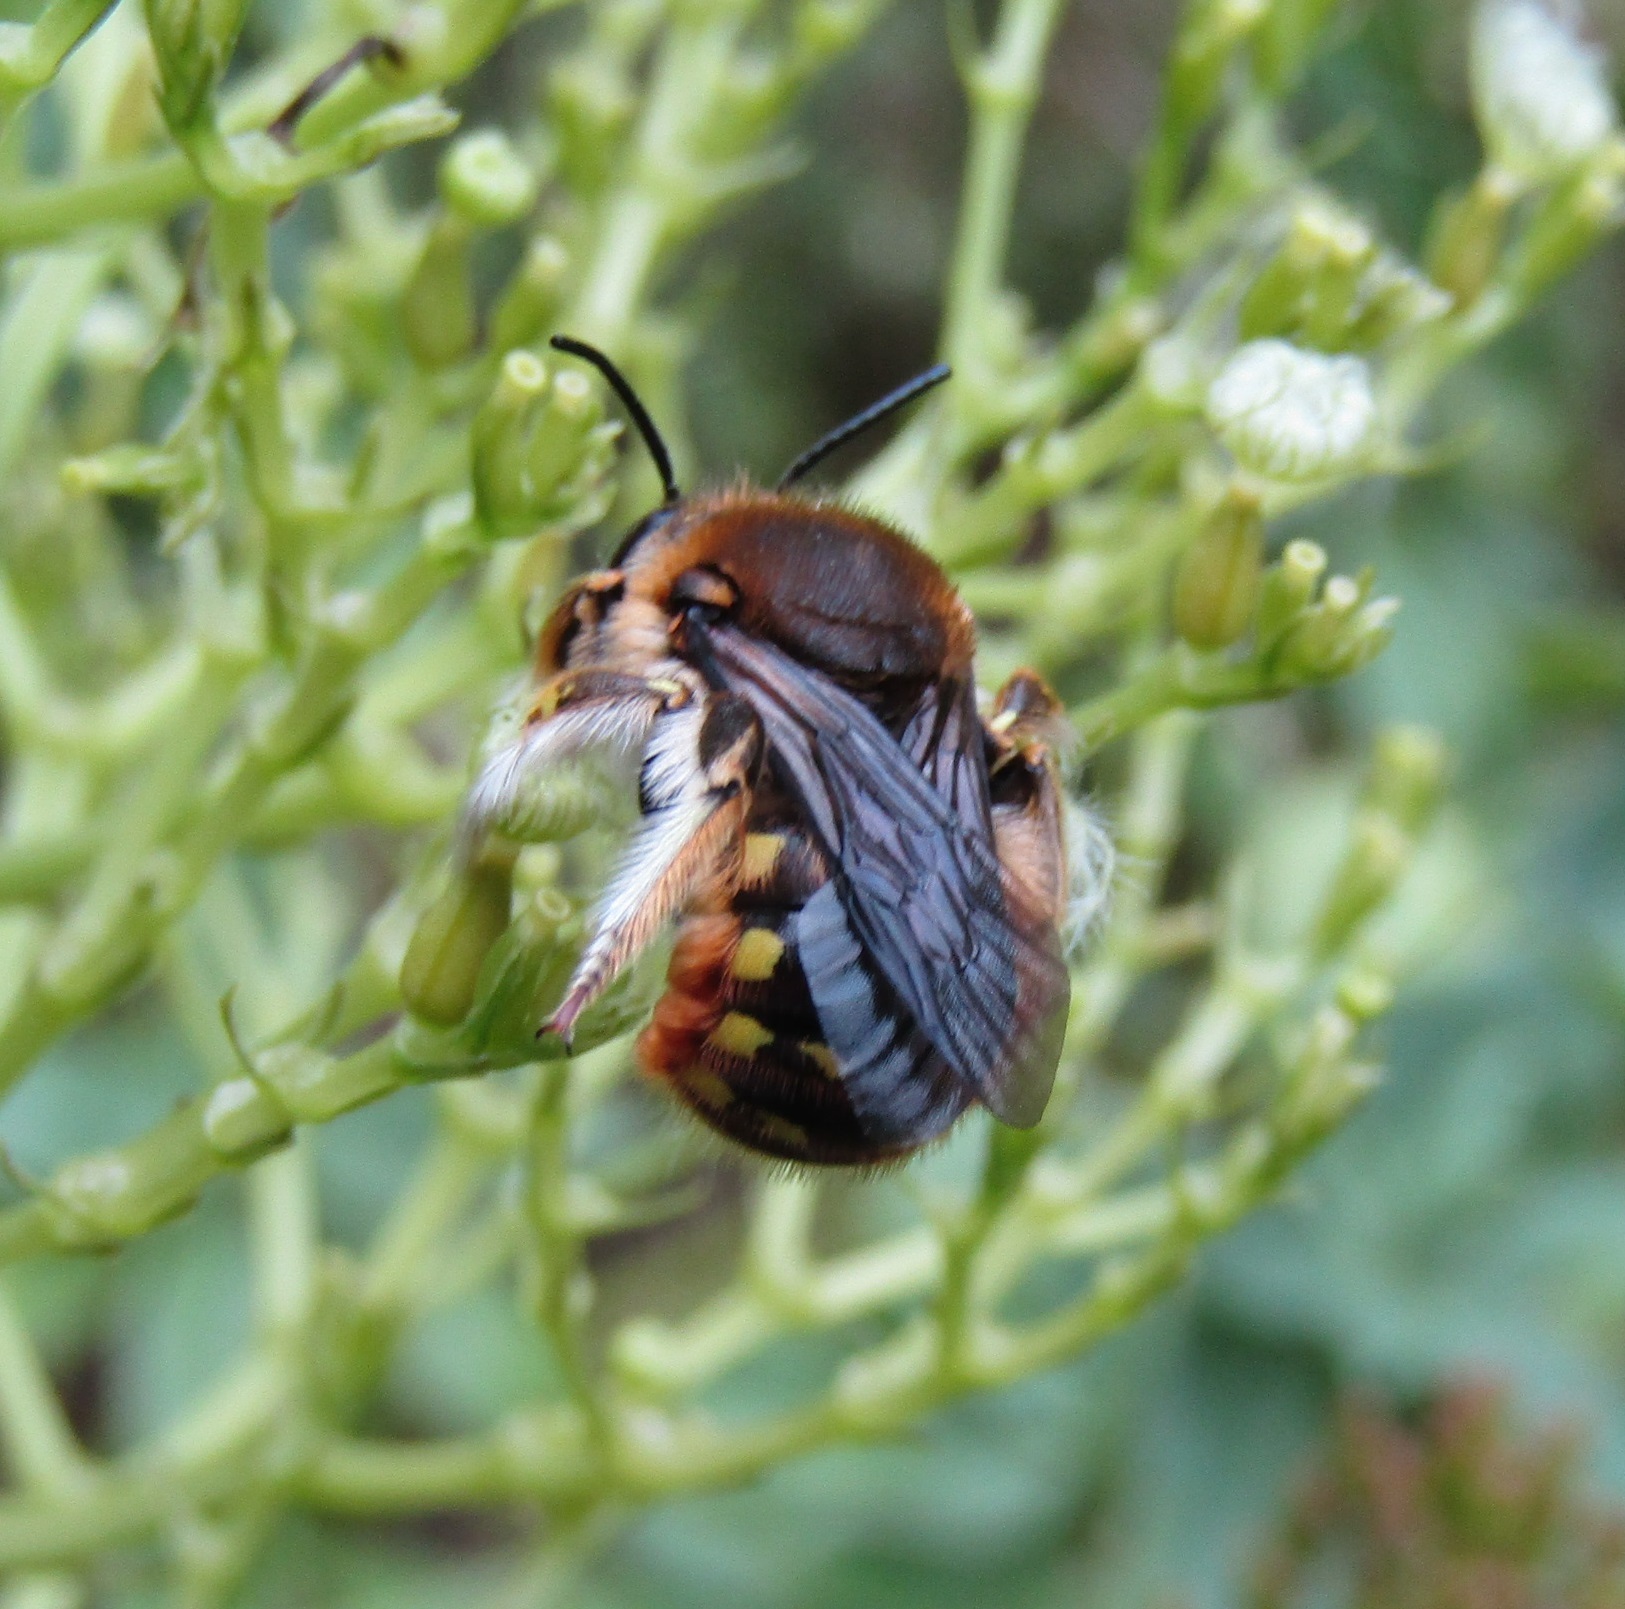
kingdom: Animalia
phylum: Arthropoda
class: Insecta
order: Hymenoptera
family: Megachilidae
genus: Anthidium
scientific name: Anthidium manicatum
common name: Wool carder bee
